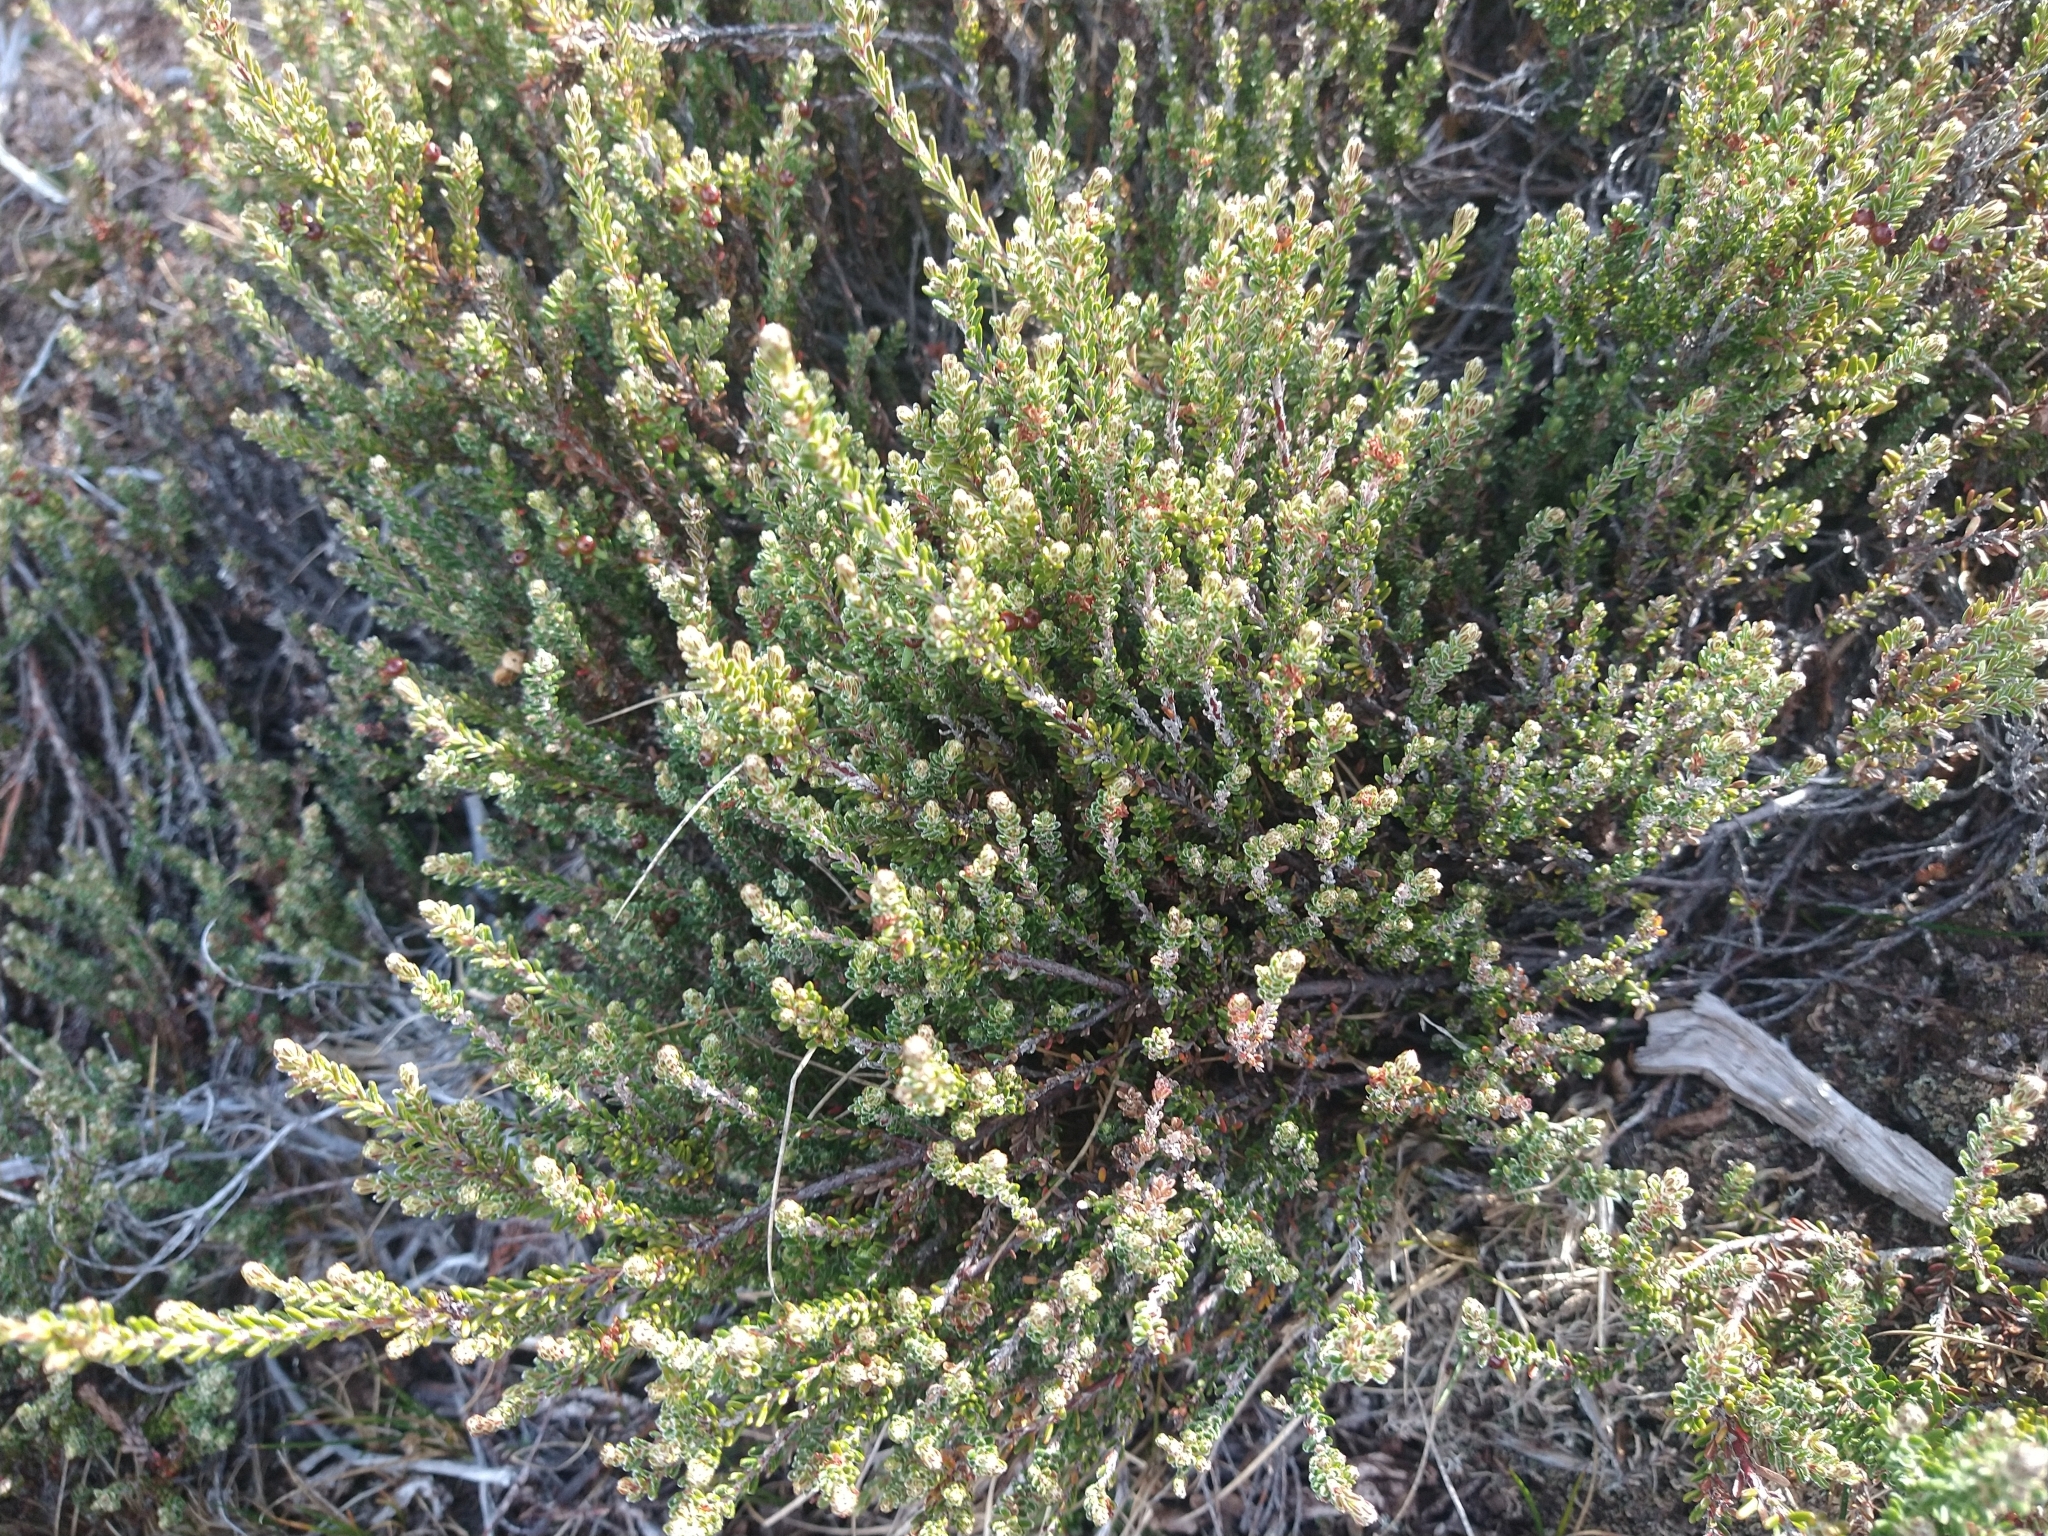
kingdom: Plantae
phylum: Tracheophyta
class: Magnoliopsida
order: Ericales
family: Ericaceae
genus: Empetrum
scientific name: Empetrum rubrum
